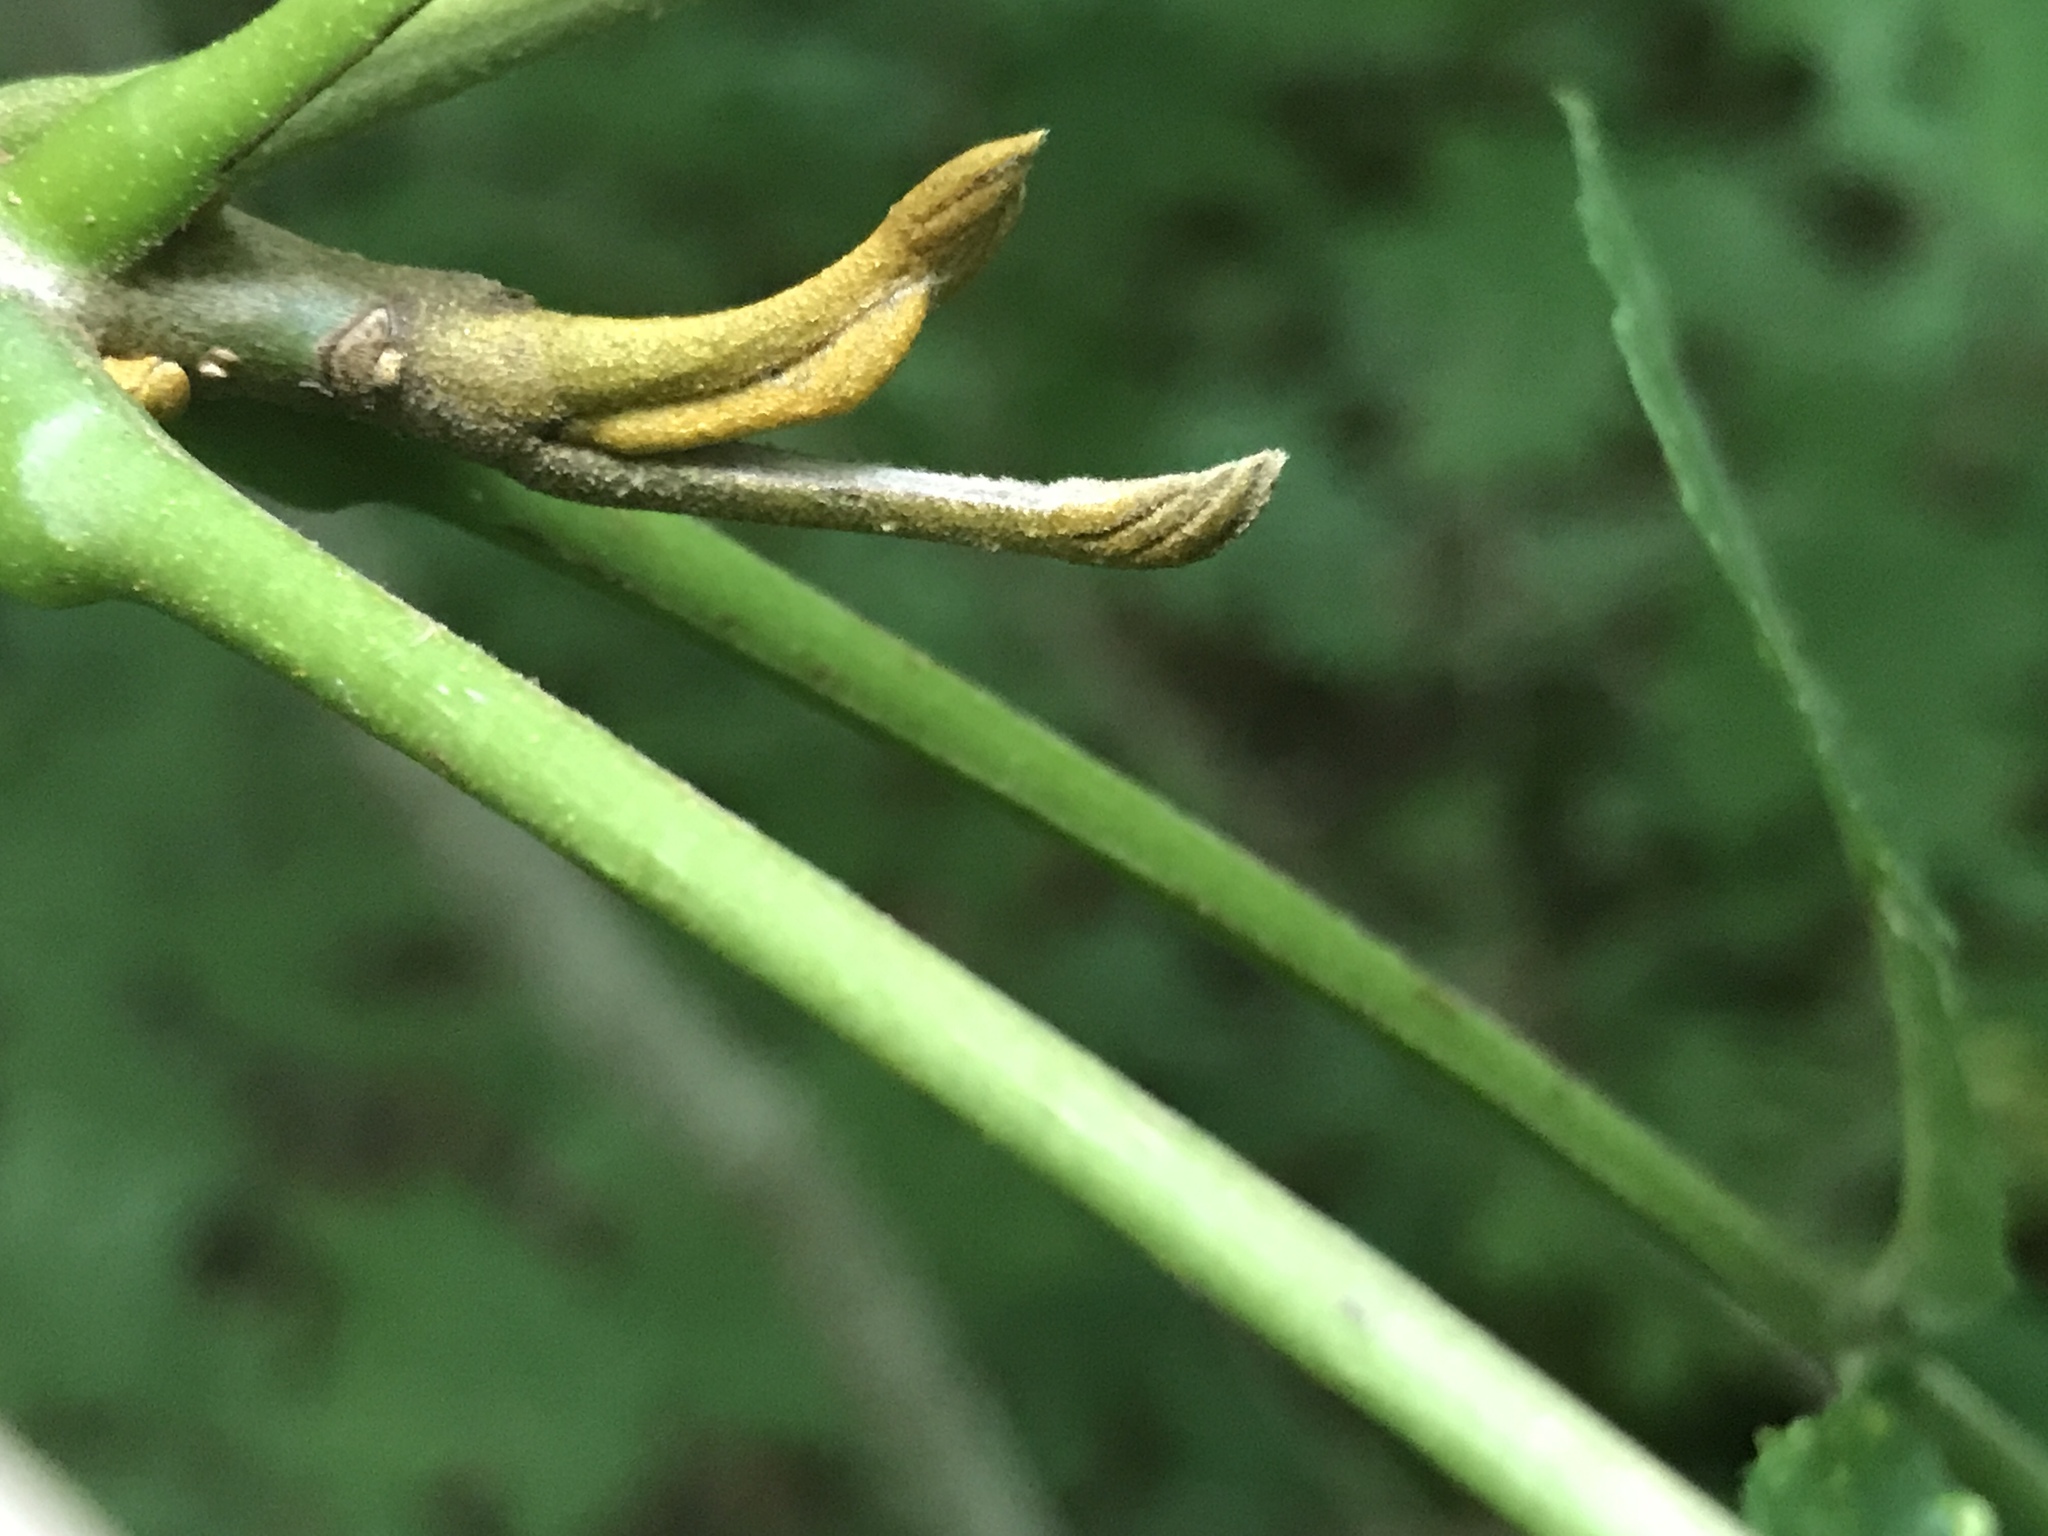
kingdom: Plantae
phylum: Tracheophyta
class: Magnoliopsida
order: Fagales
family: Juglandaceae
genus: Carya
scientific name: Carya cordiformis
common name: Bitternut hickory
